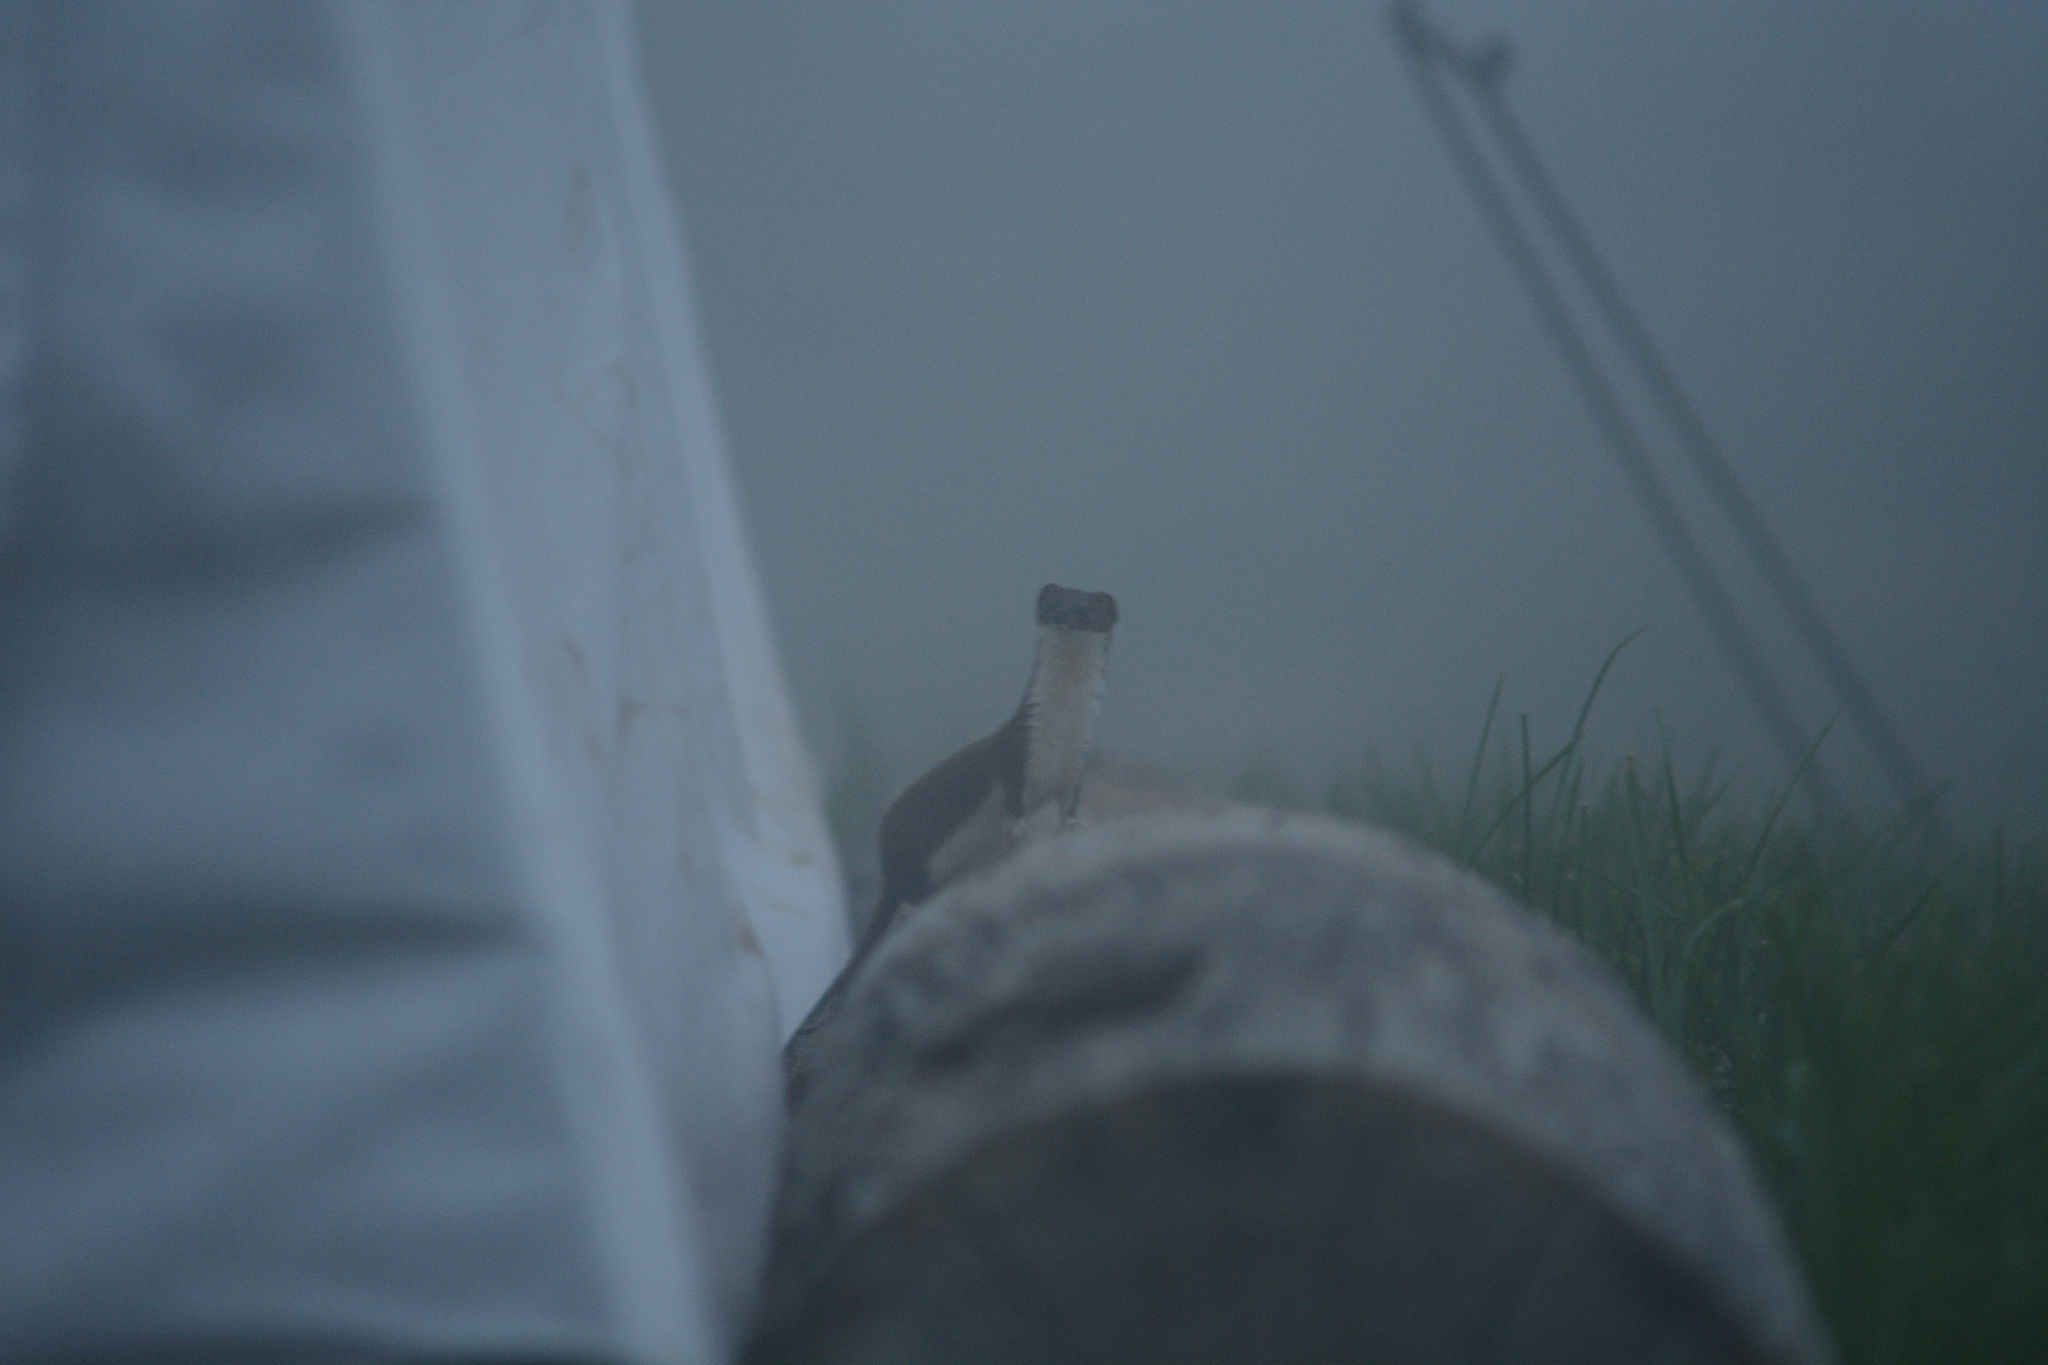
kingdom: Animalia
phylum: Chordata
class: Mammalia
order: Carnivora
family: Mustelidae
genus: Mustela
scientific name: Mustela erminea
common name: Stoat
